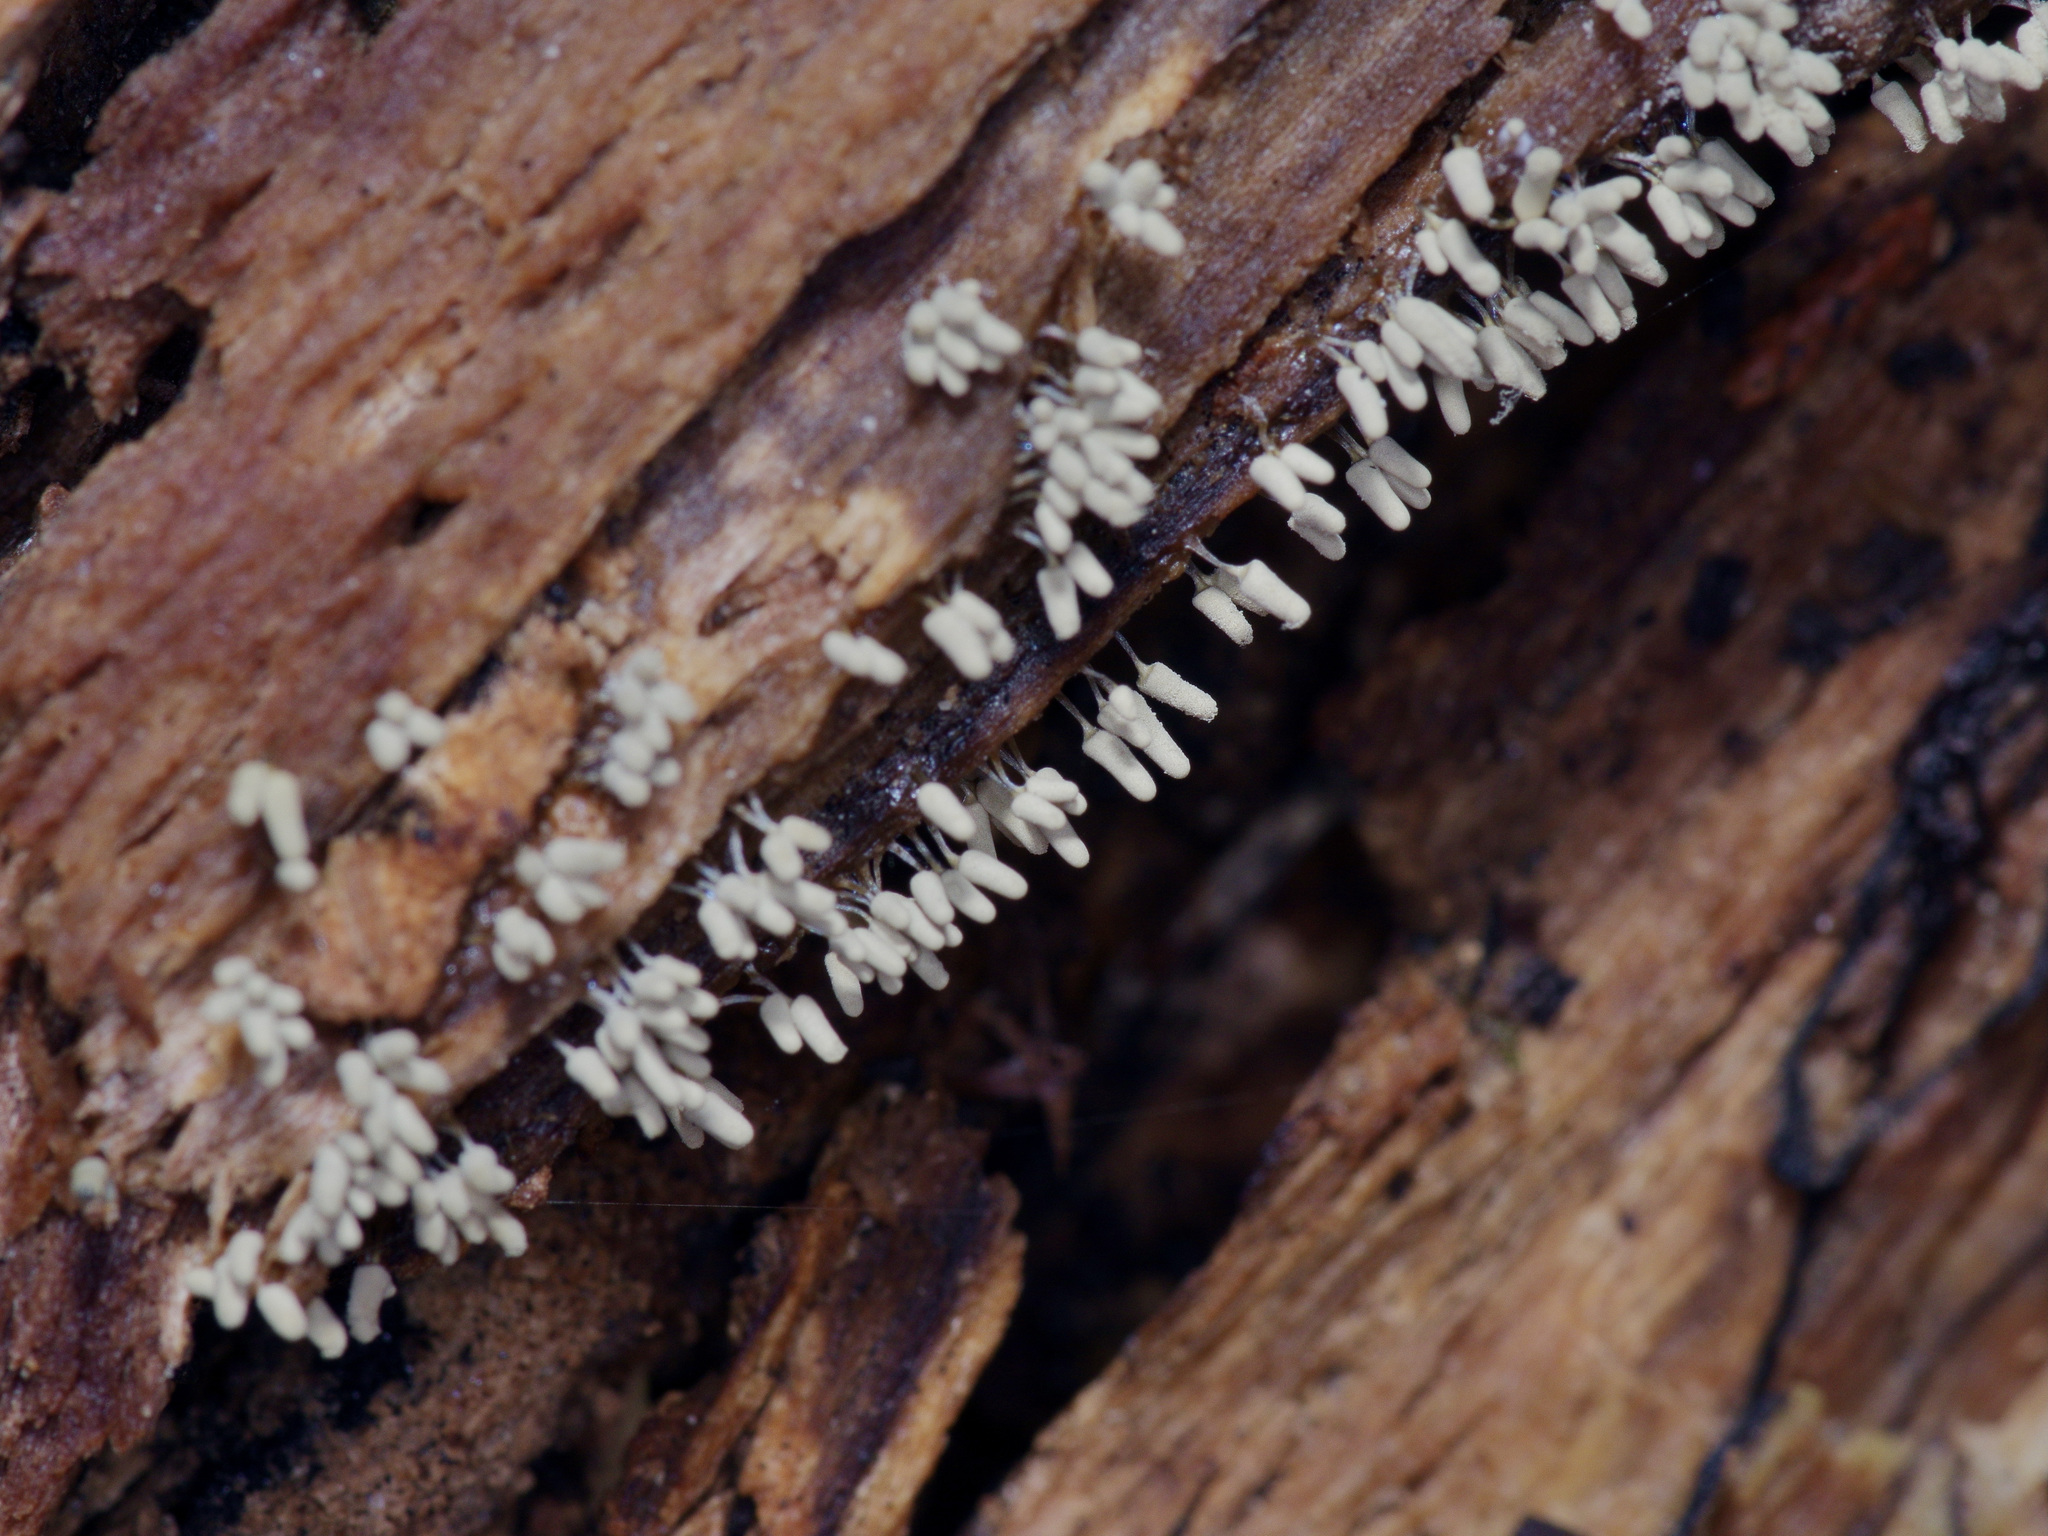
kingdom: Protozoa
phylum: Mycetozoa
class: Myxomycetes
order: Trichiales
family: Arcyriaceae
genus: Arcyria
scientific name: Arcyria cinerea
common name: White carnival candy slime mold
